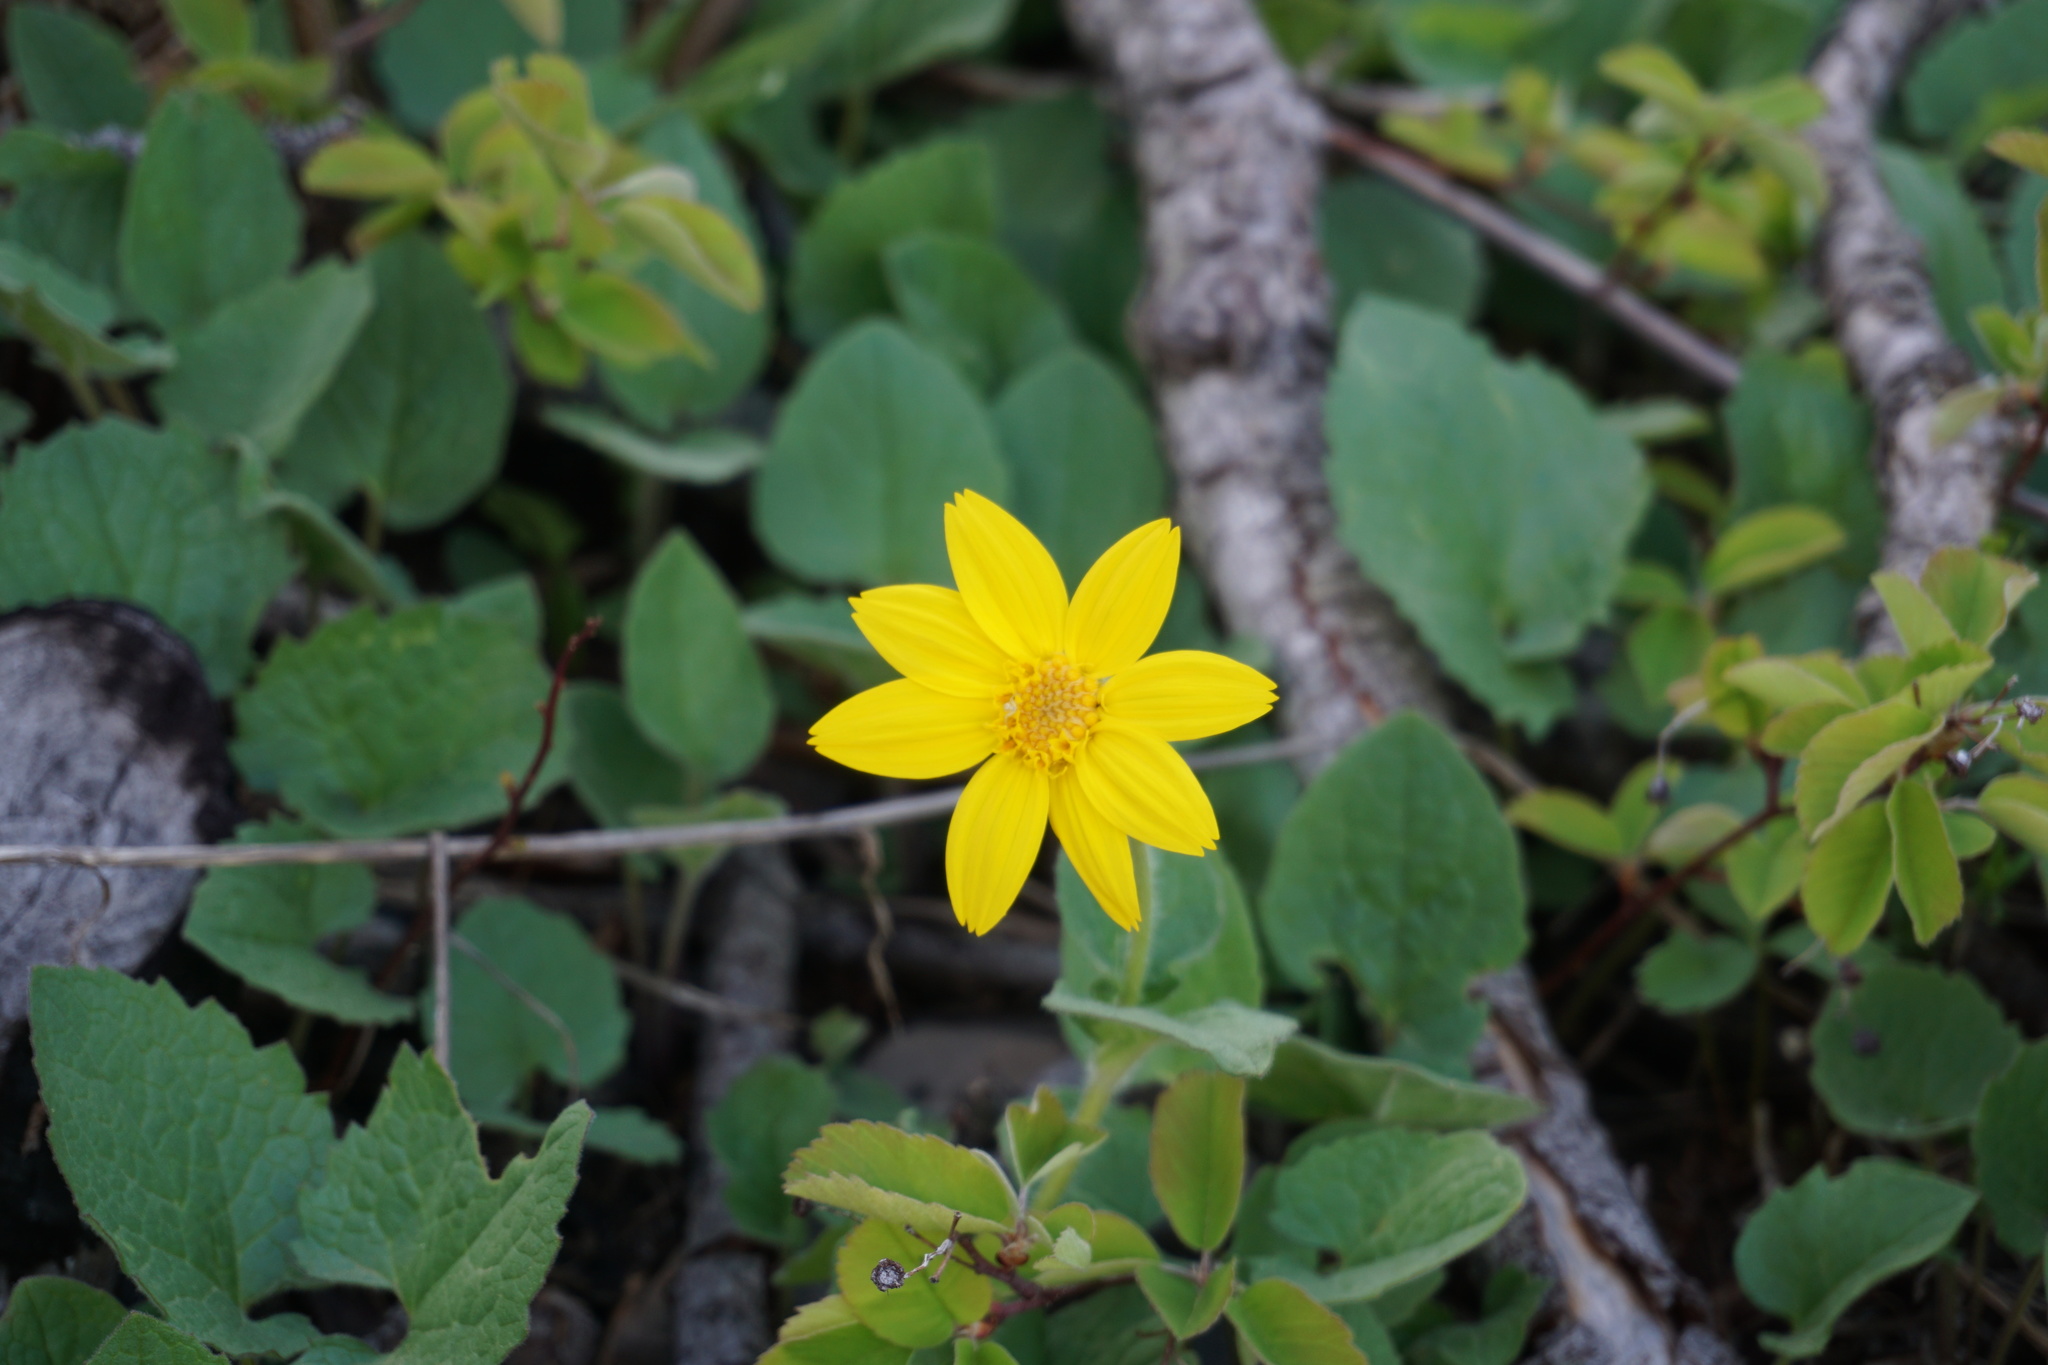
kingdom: Plantae
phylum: Tracheophyta
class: Magnoliopsida
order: Asterales
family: Asteraceae
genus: Arnica
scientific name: Arnica cordifolia
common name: Heart-leaf arnica
